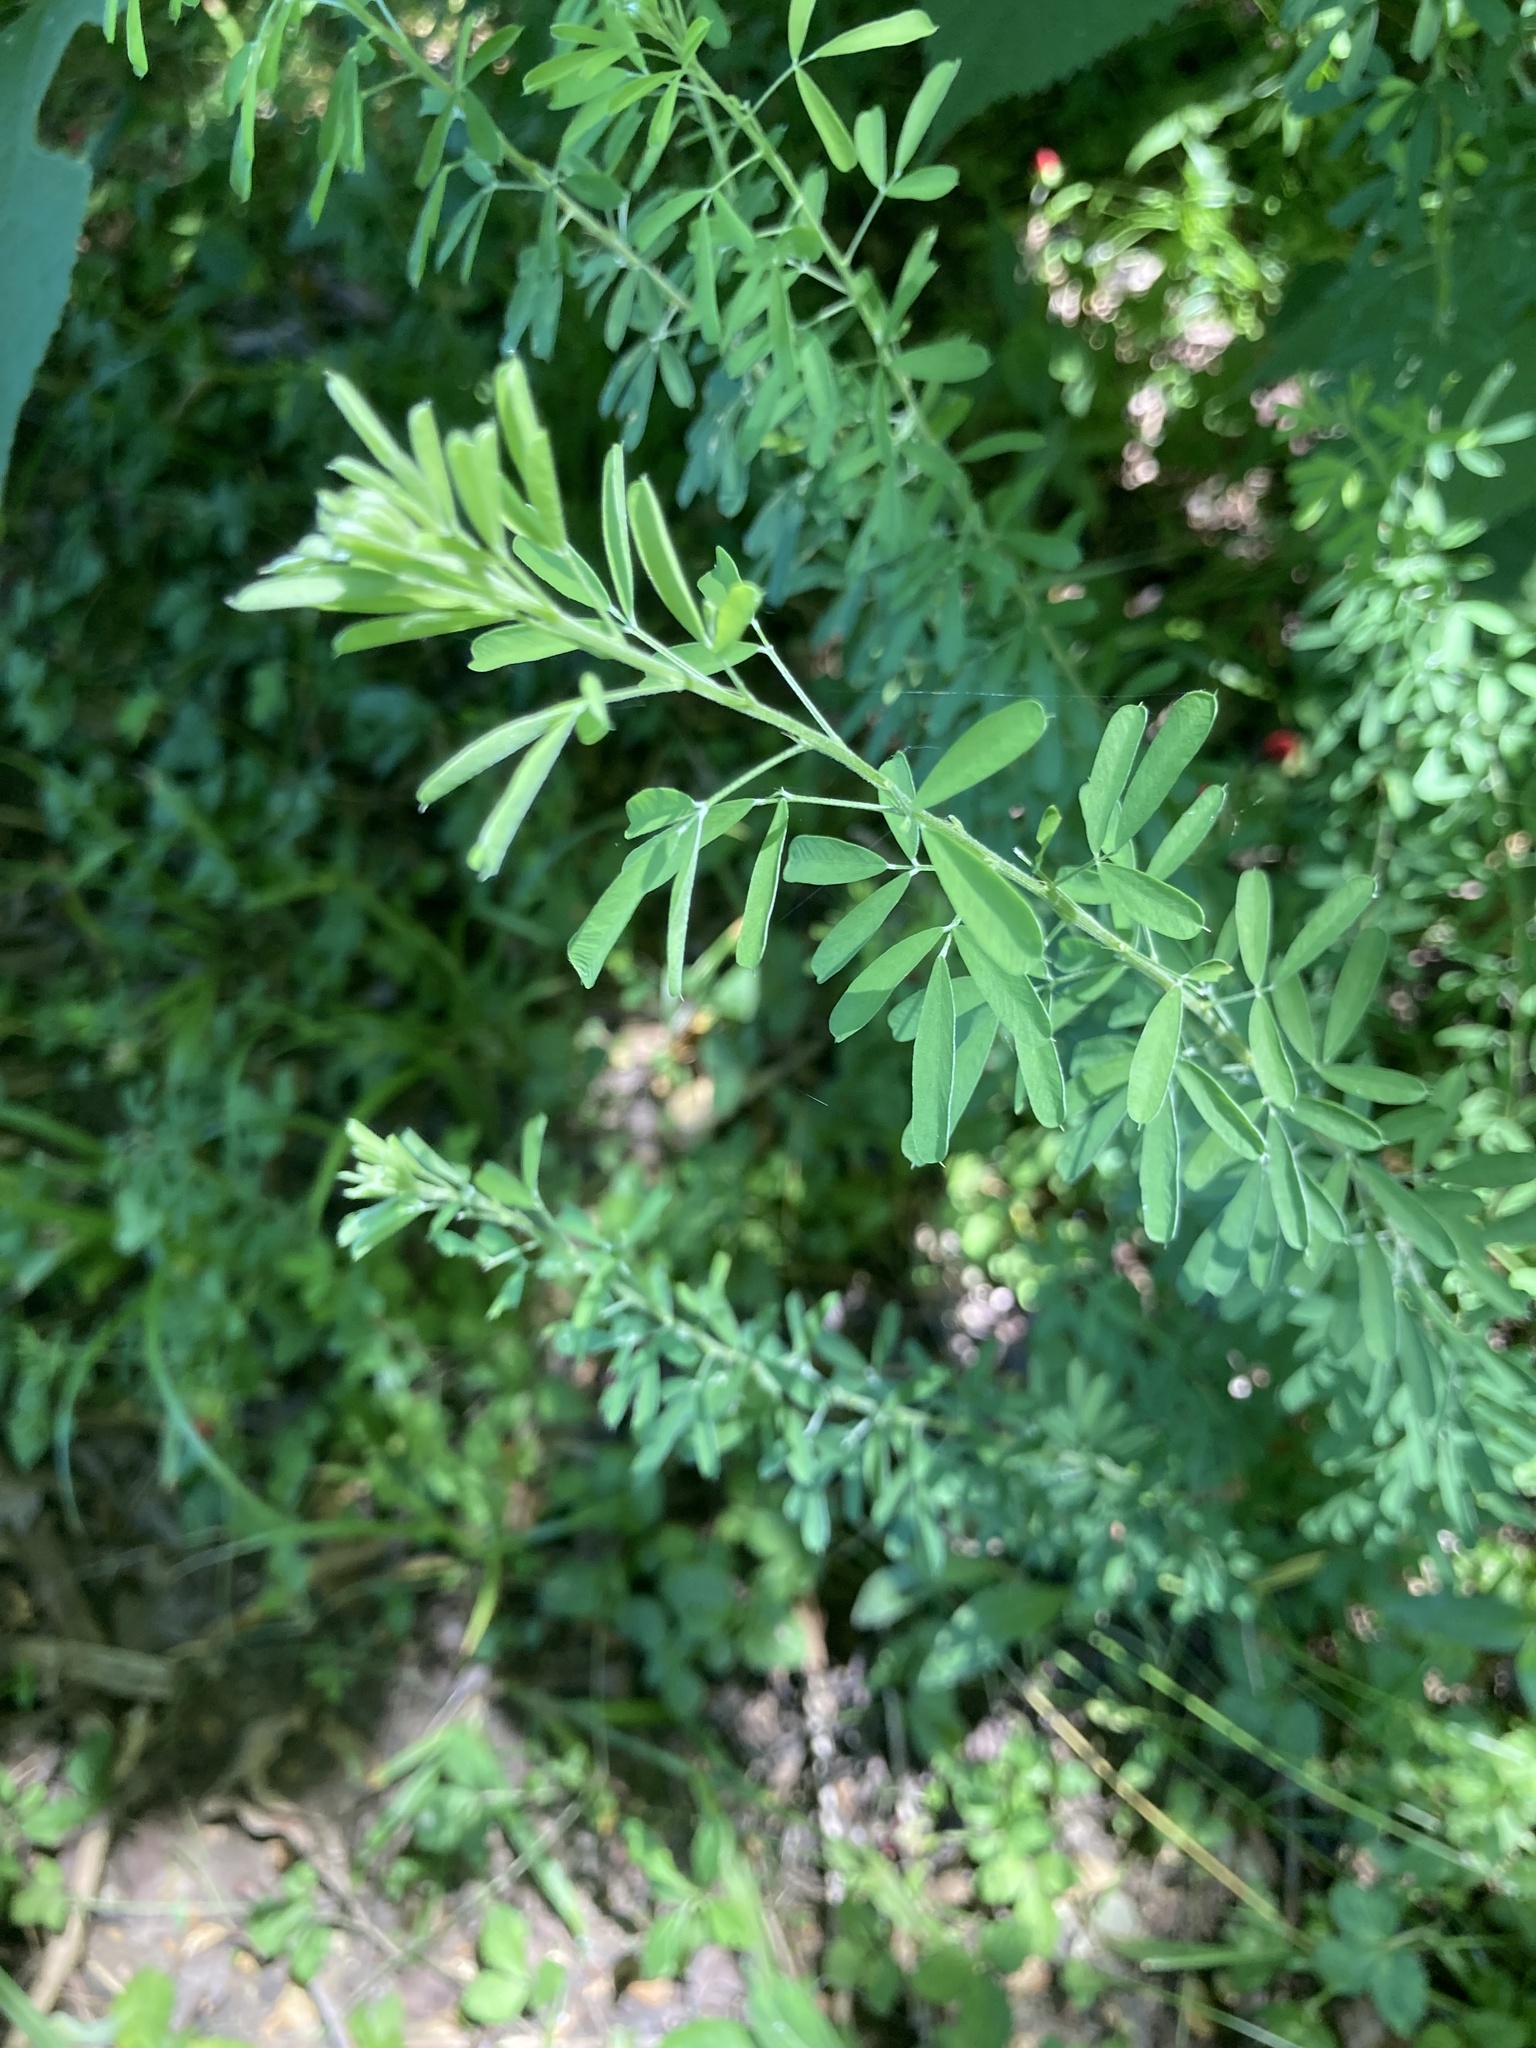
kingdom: Plantae
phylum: Tracheophyta
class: Magnoliopsida
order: Fabales
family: Fabaceae
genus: Lespedeza
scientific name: Lespedeza cuneata
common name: Chinese bush-clover
